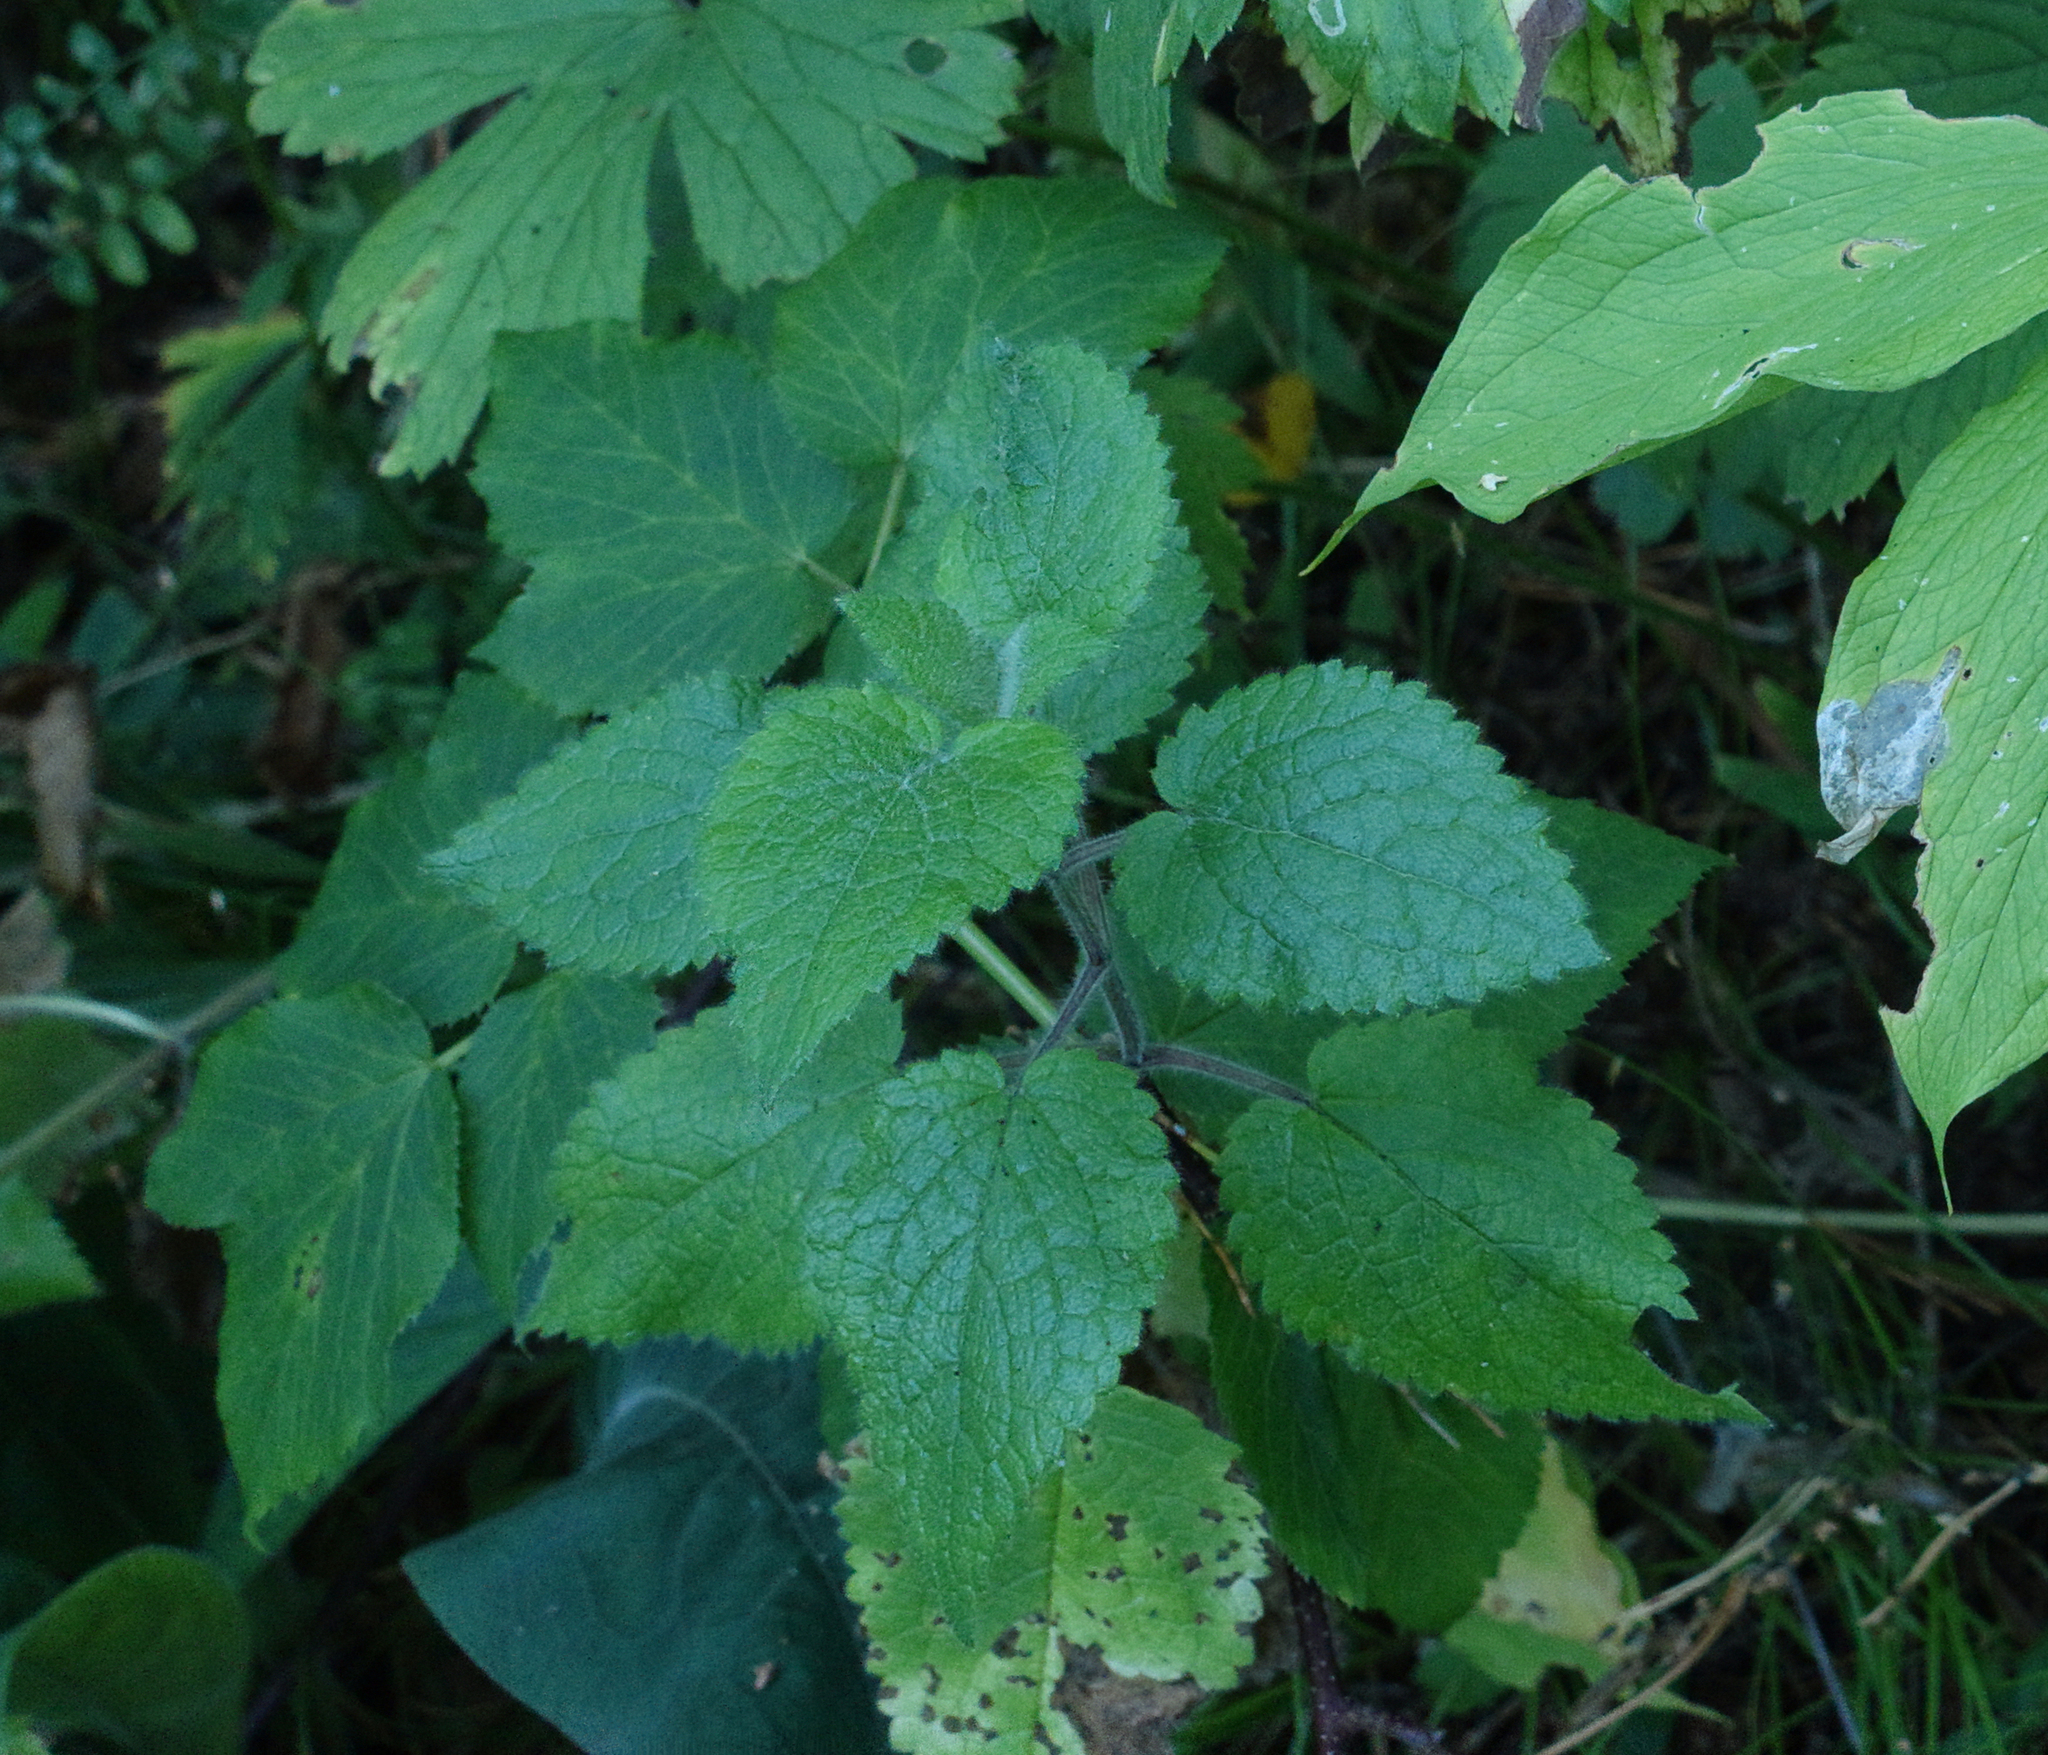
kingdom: Plantae
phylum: Tracheophyta
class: Magnoliopsida
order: Lamiales
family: Lamiaceae
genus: Stachys
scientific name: Stachys sylvatica
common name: Hedge woundwort
